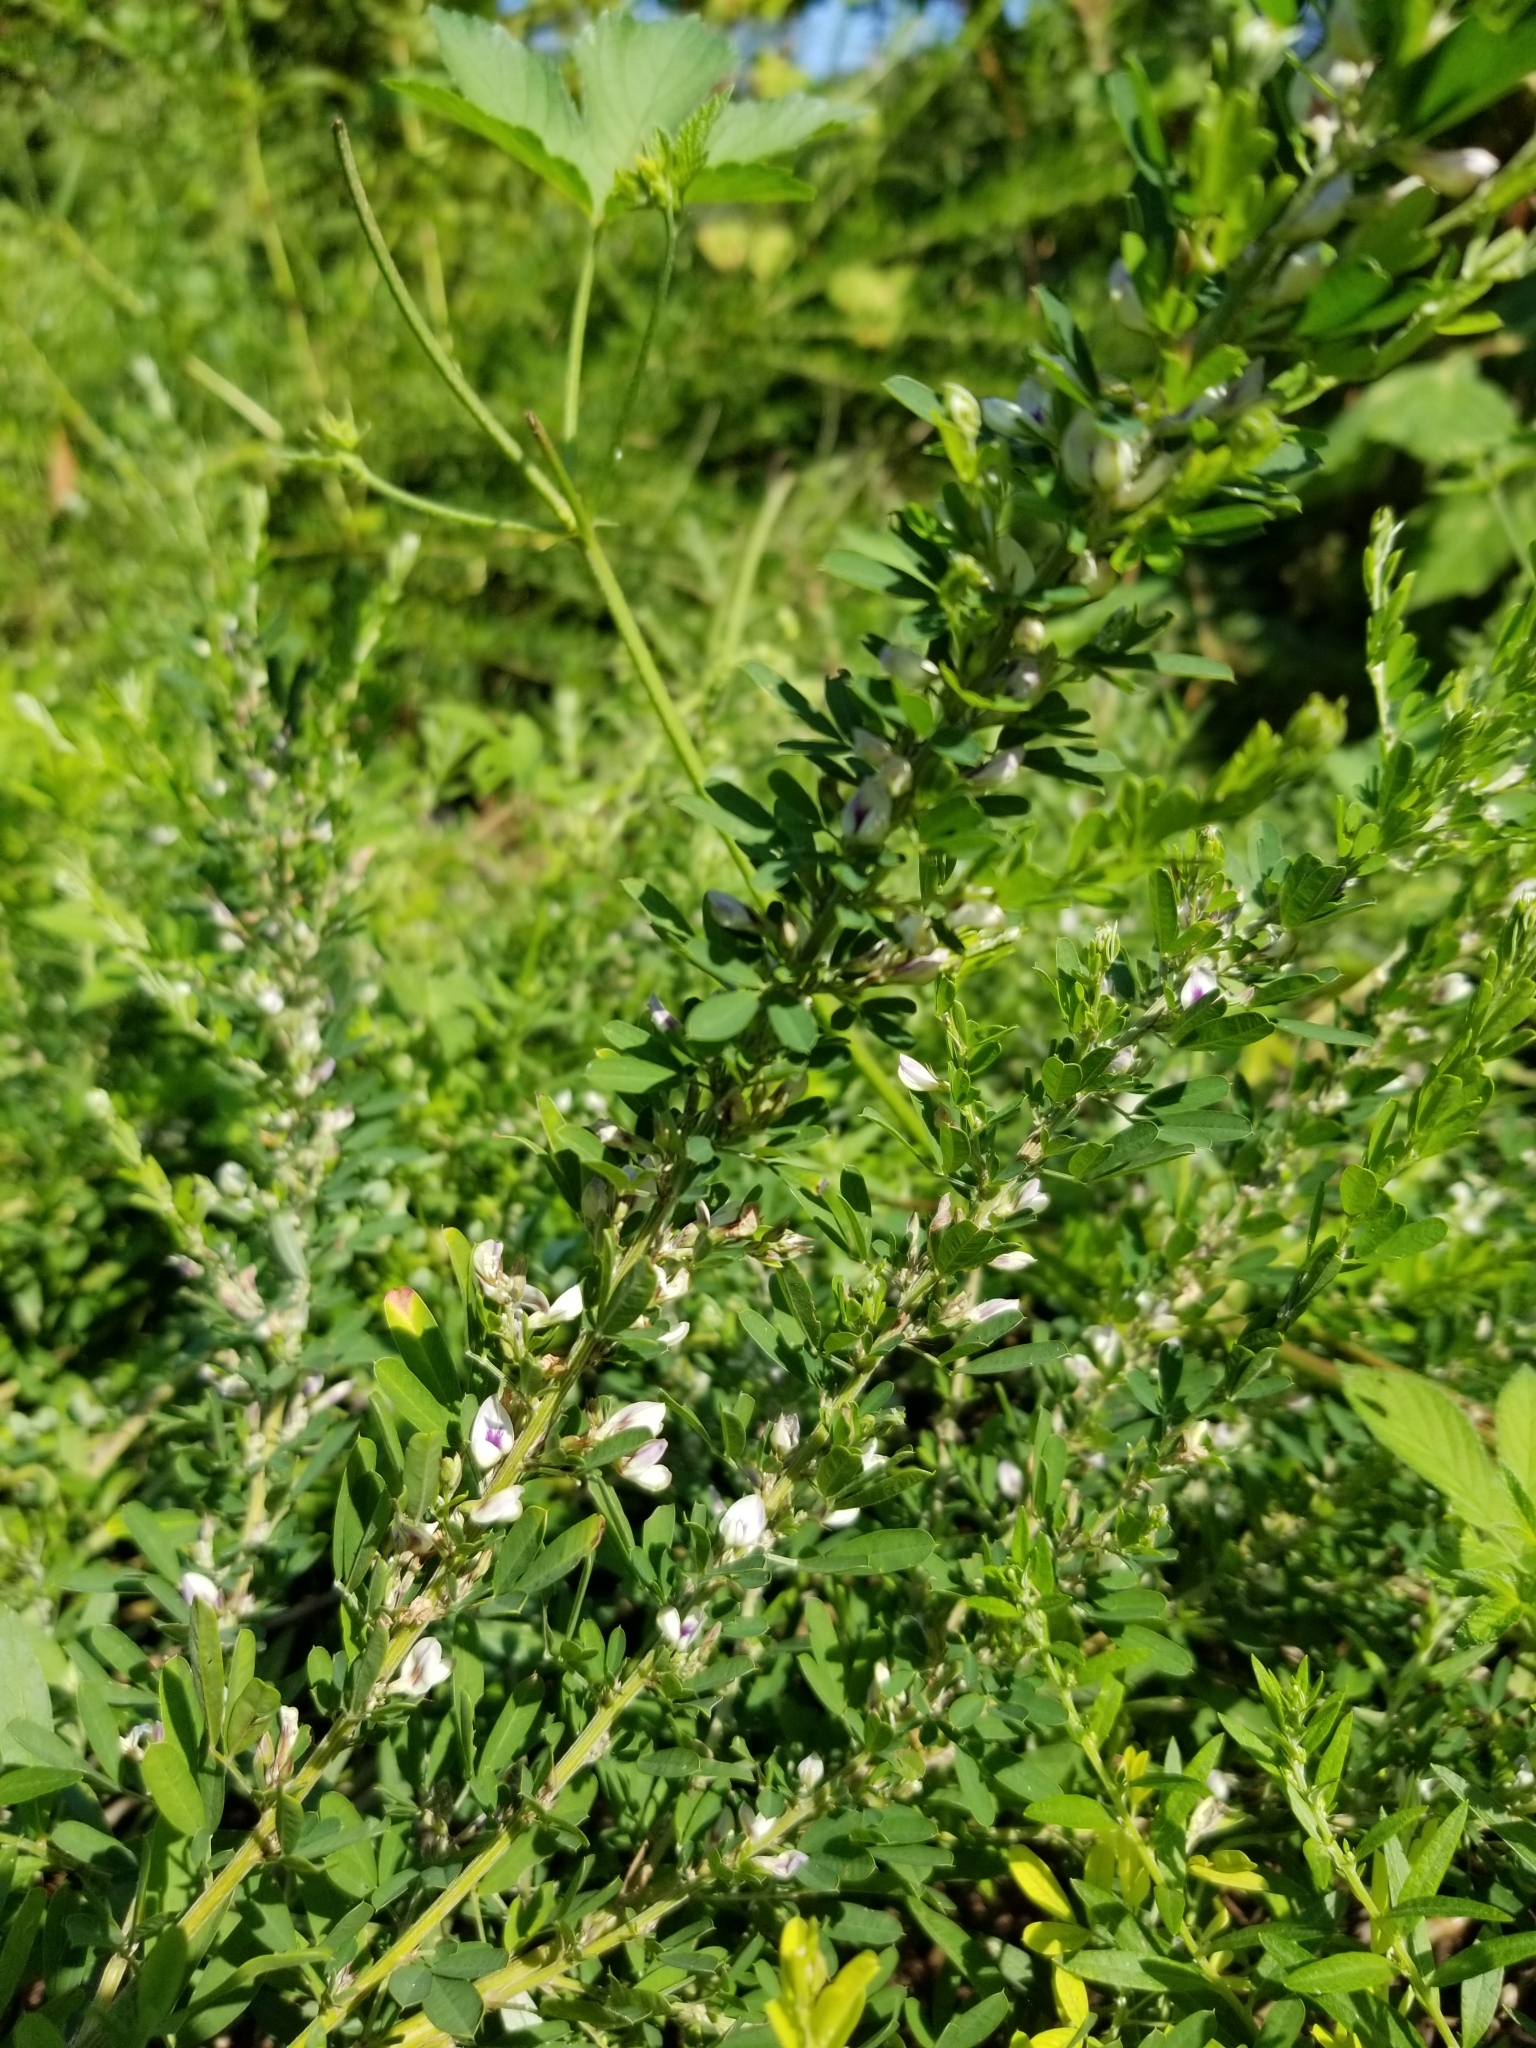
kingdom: Plantae
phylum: Tracheophyta
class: Magnoliopsida
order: Fabales
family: Fabaceae
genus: Lespedeza
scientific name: Lespedeza cuneata
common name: Chinese bush-clover
